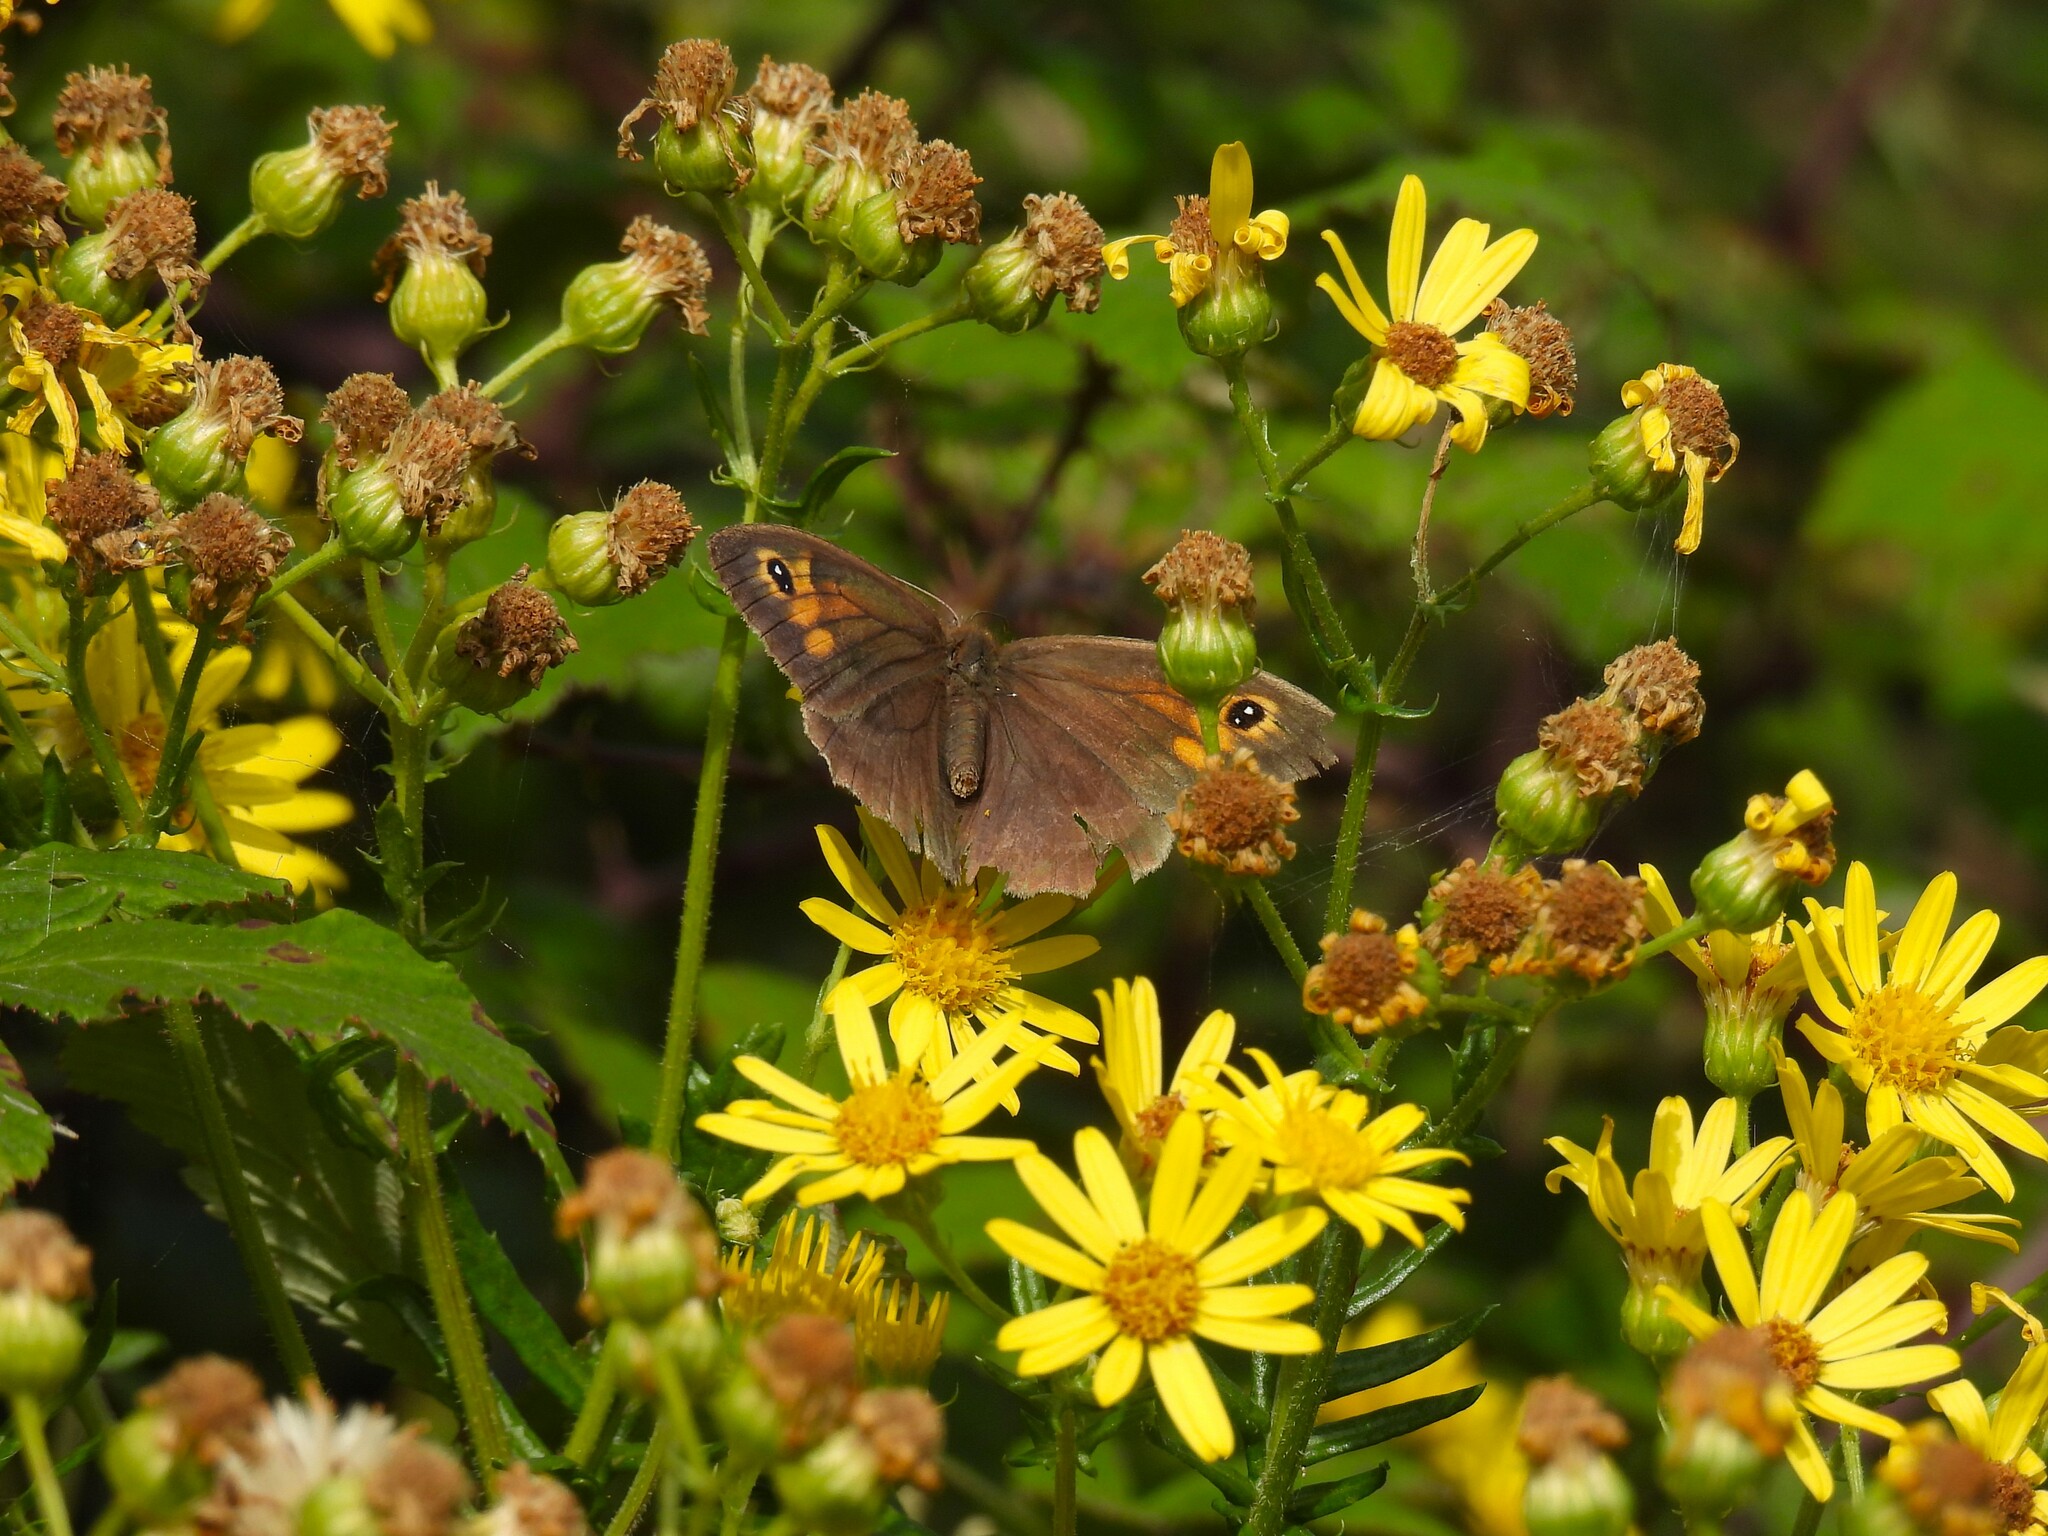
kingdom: Animalia
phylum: Arthropoda
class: Insecta
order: Lepidoptera
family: Nymphalidae
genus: Pyronia
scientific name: Pyronia tithonus
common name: Gatekeeper
